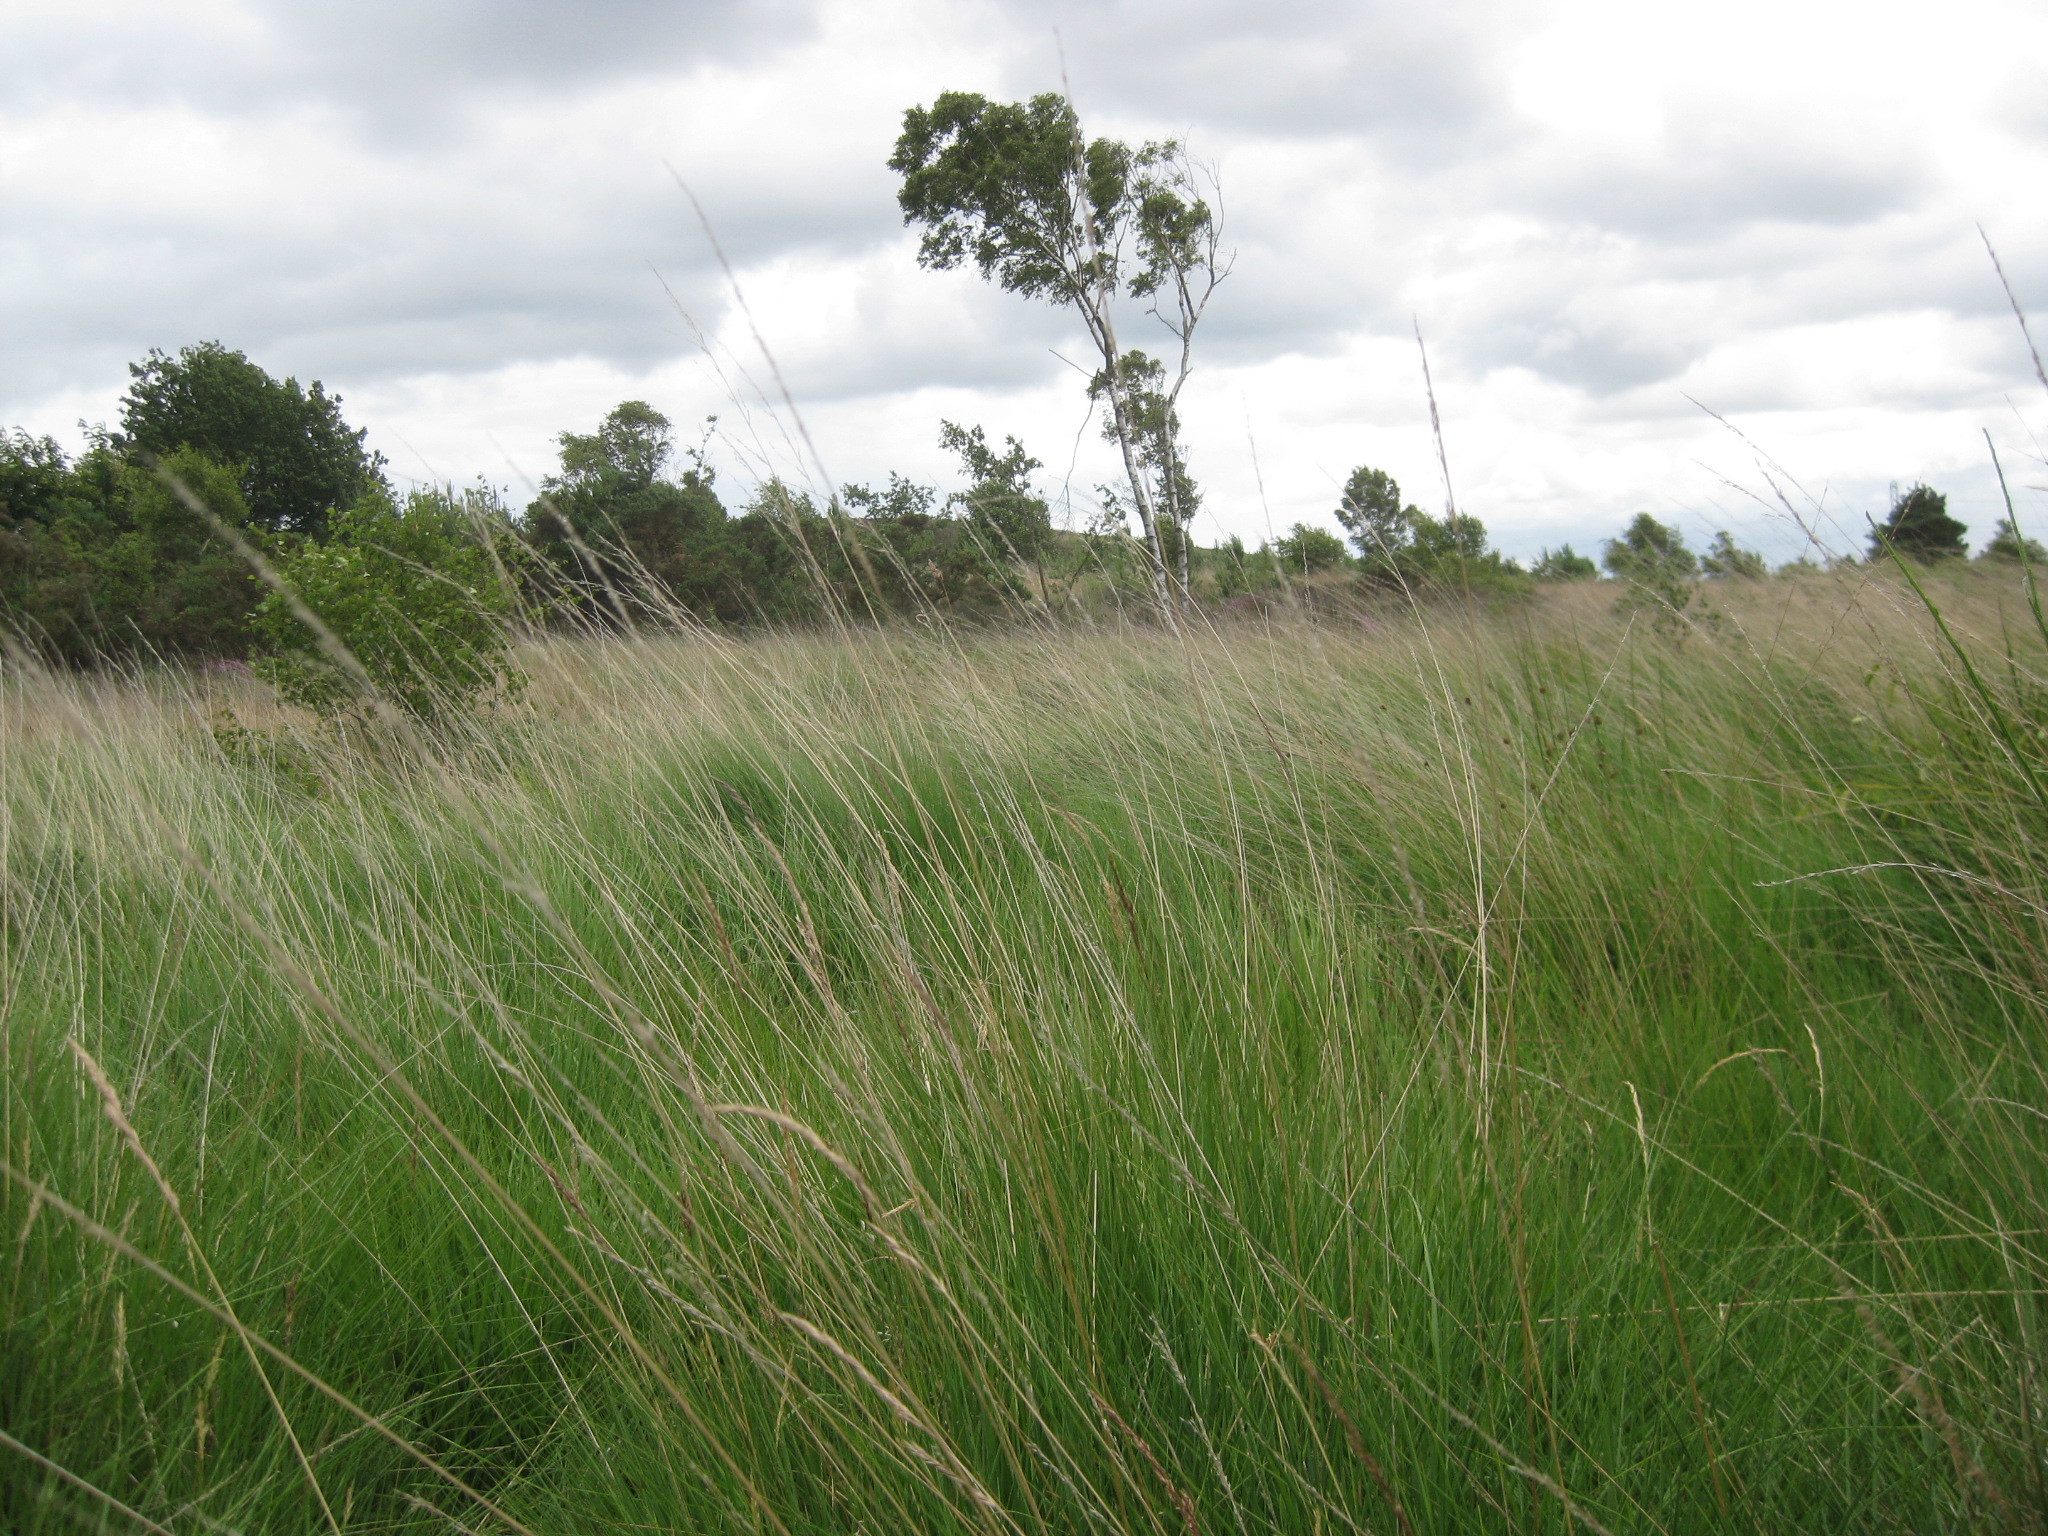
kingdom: Plantae
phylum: Tracheophyta
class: Liliopsida
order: Poales
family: Poaceae
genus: Molinia
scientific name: Molinia caerulea
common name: Purple moor-grass
